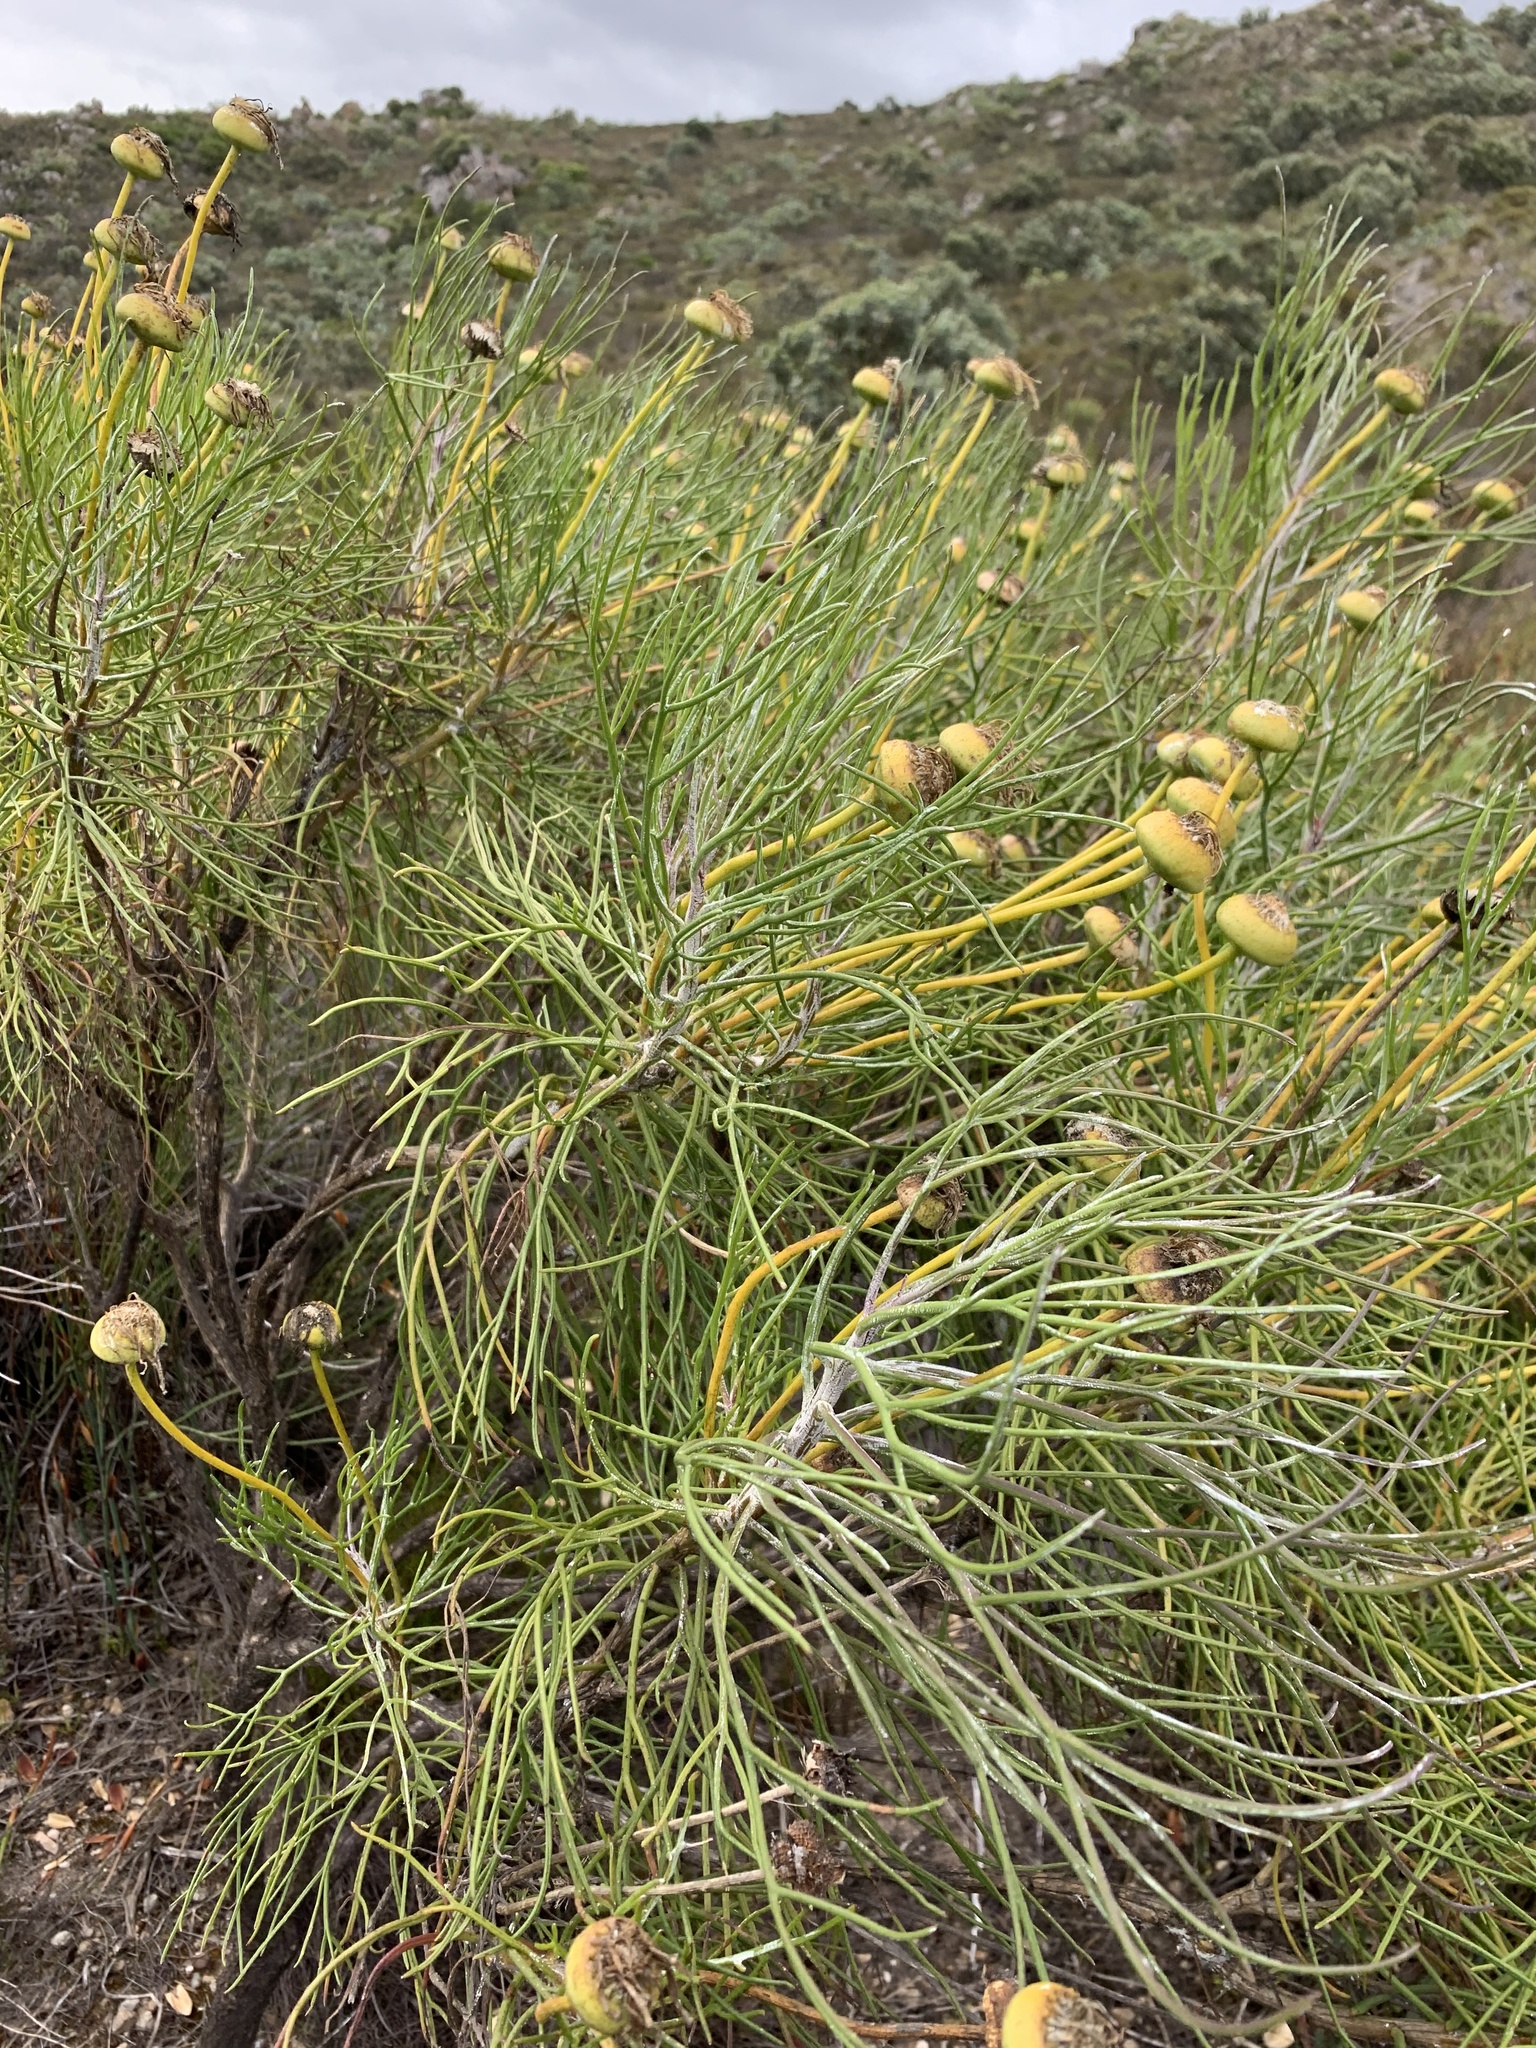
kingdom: Plantae
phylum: Tracheophyta
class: Magnoliopsida
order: Asterales
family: Asteraceae
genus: Hymenolepis
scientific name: Hymenolepis crithmifolia
